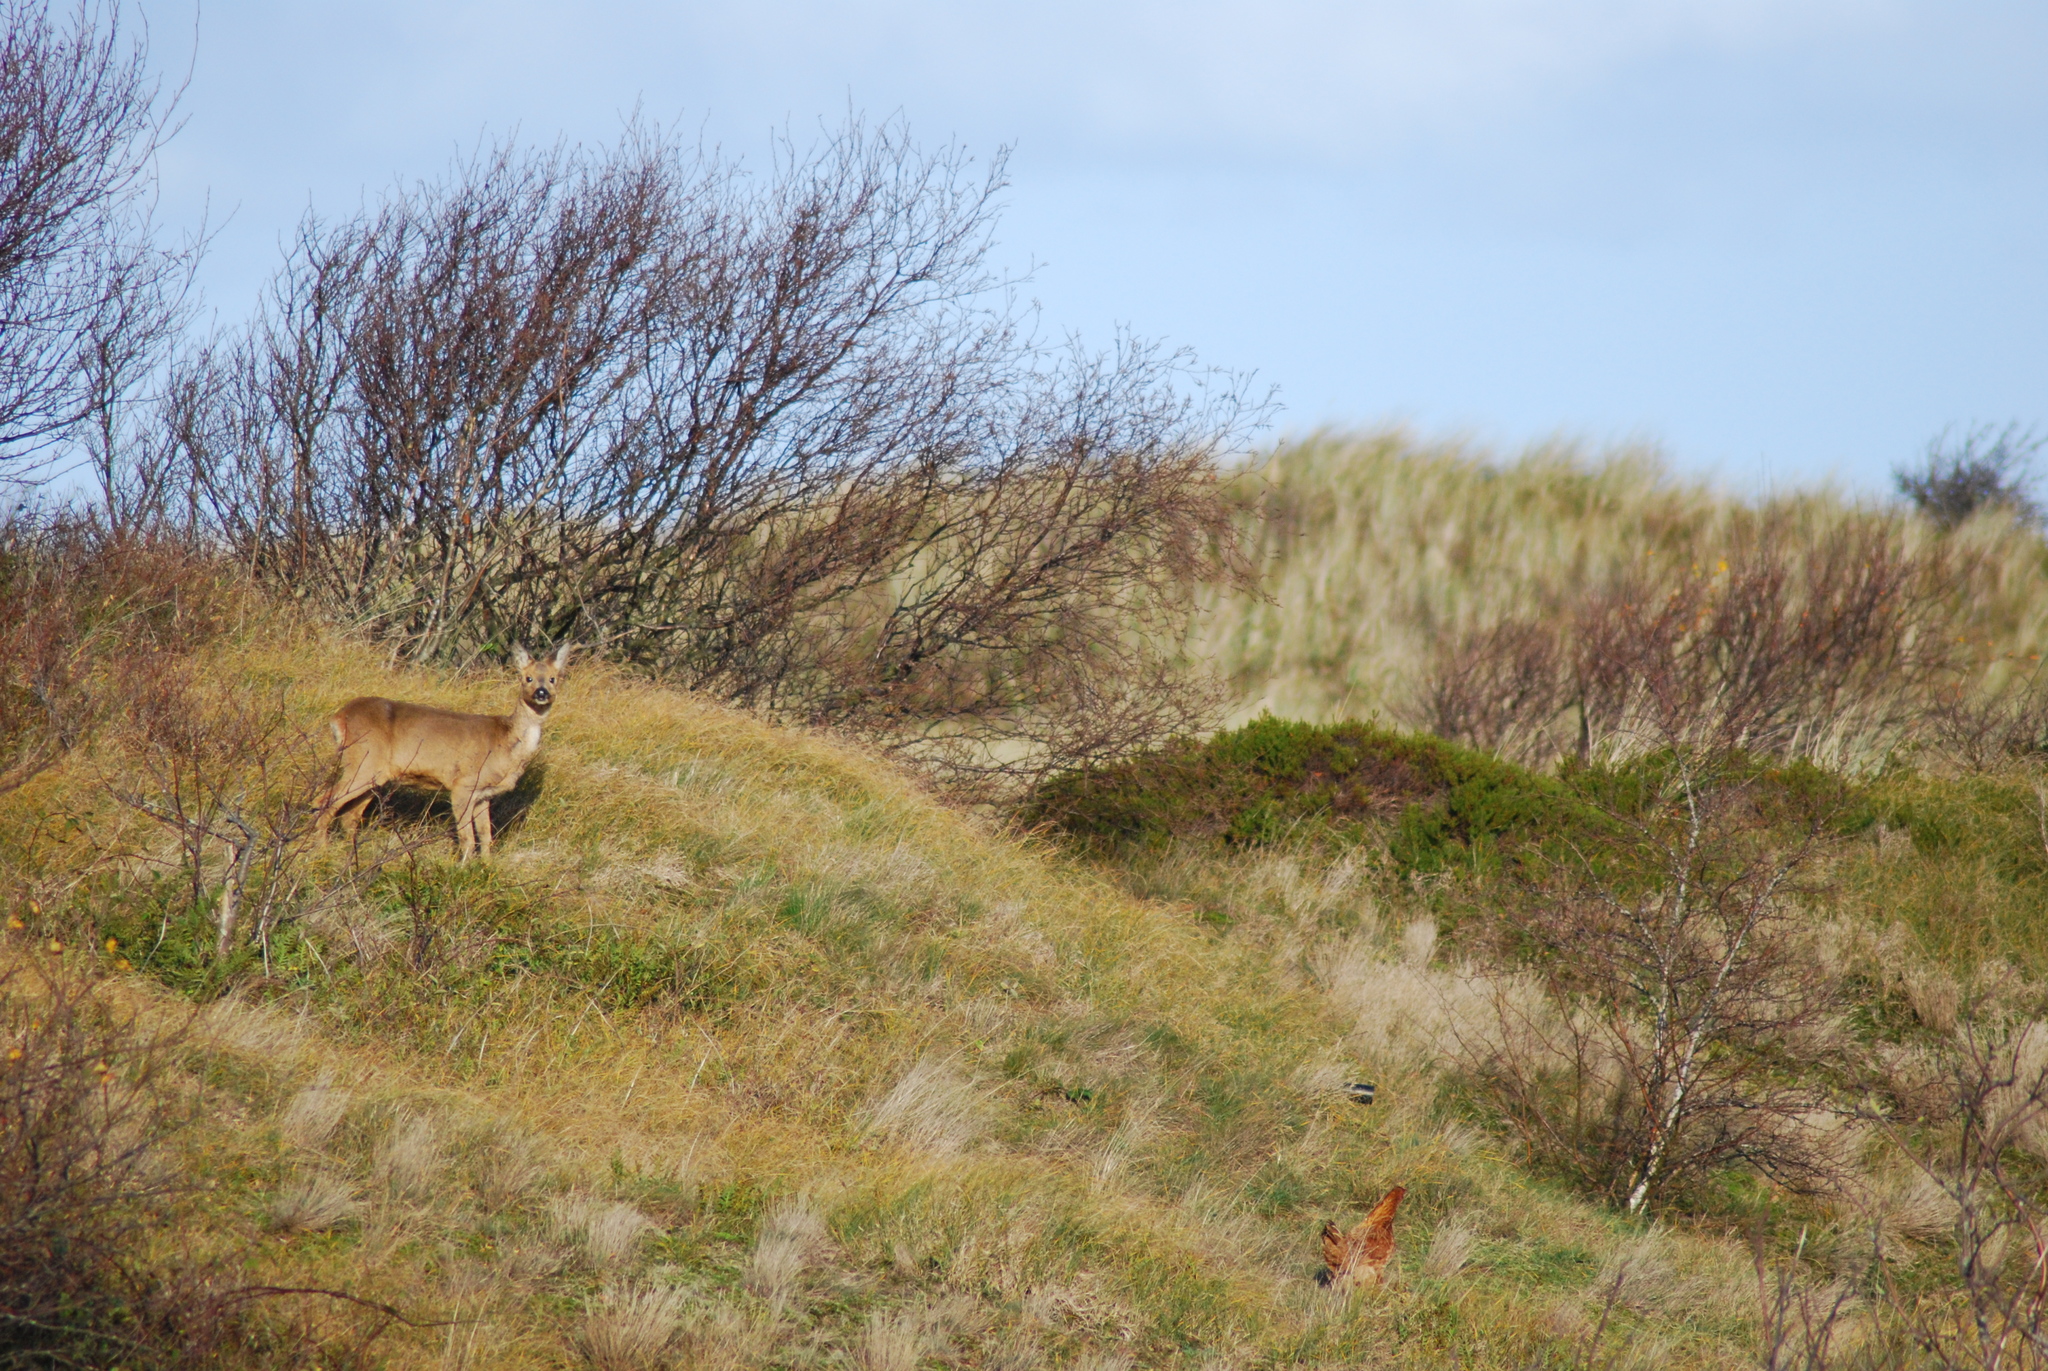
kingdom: Animalia
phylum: Chordata
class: Mammalia
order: Artiodactyla
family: Cervidae
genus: Capreolus
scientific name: Capreolus capreolus
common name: Western roe deer
